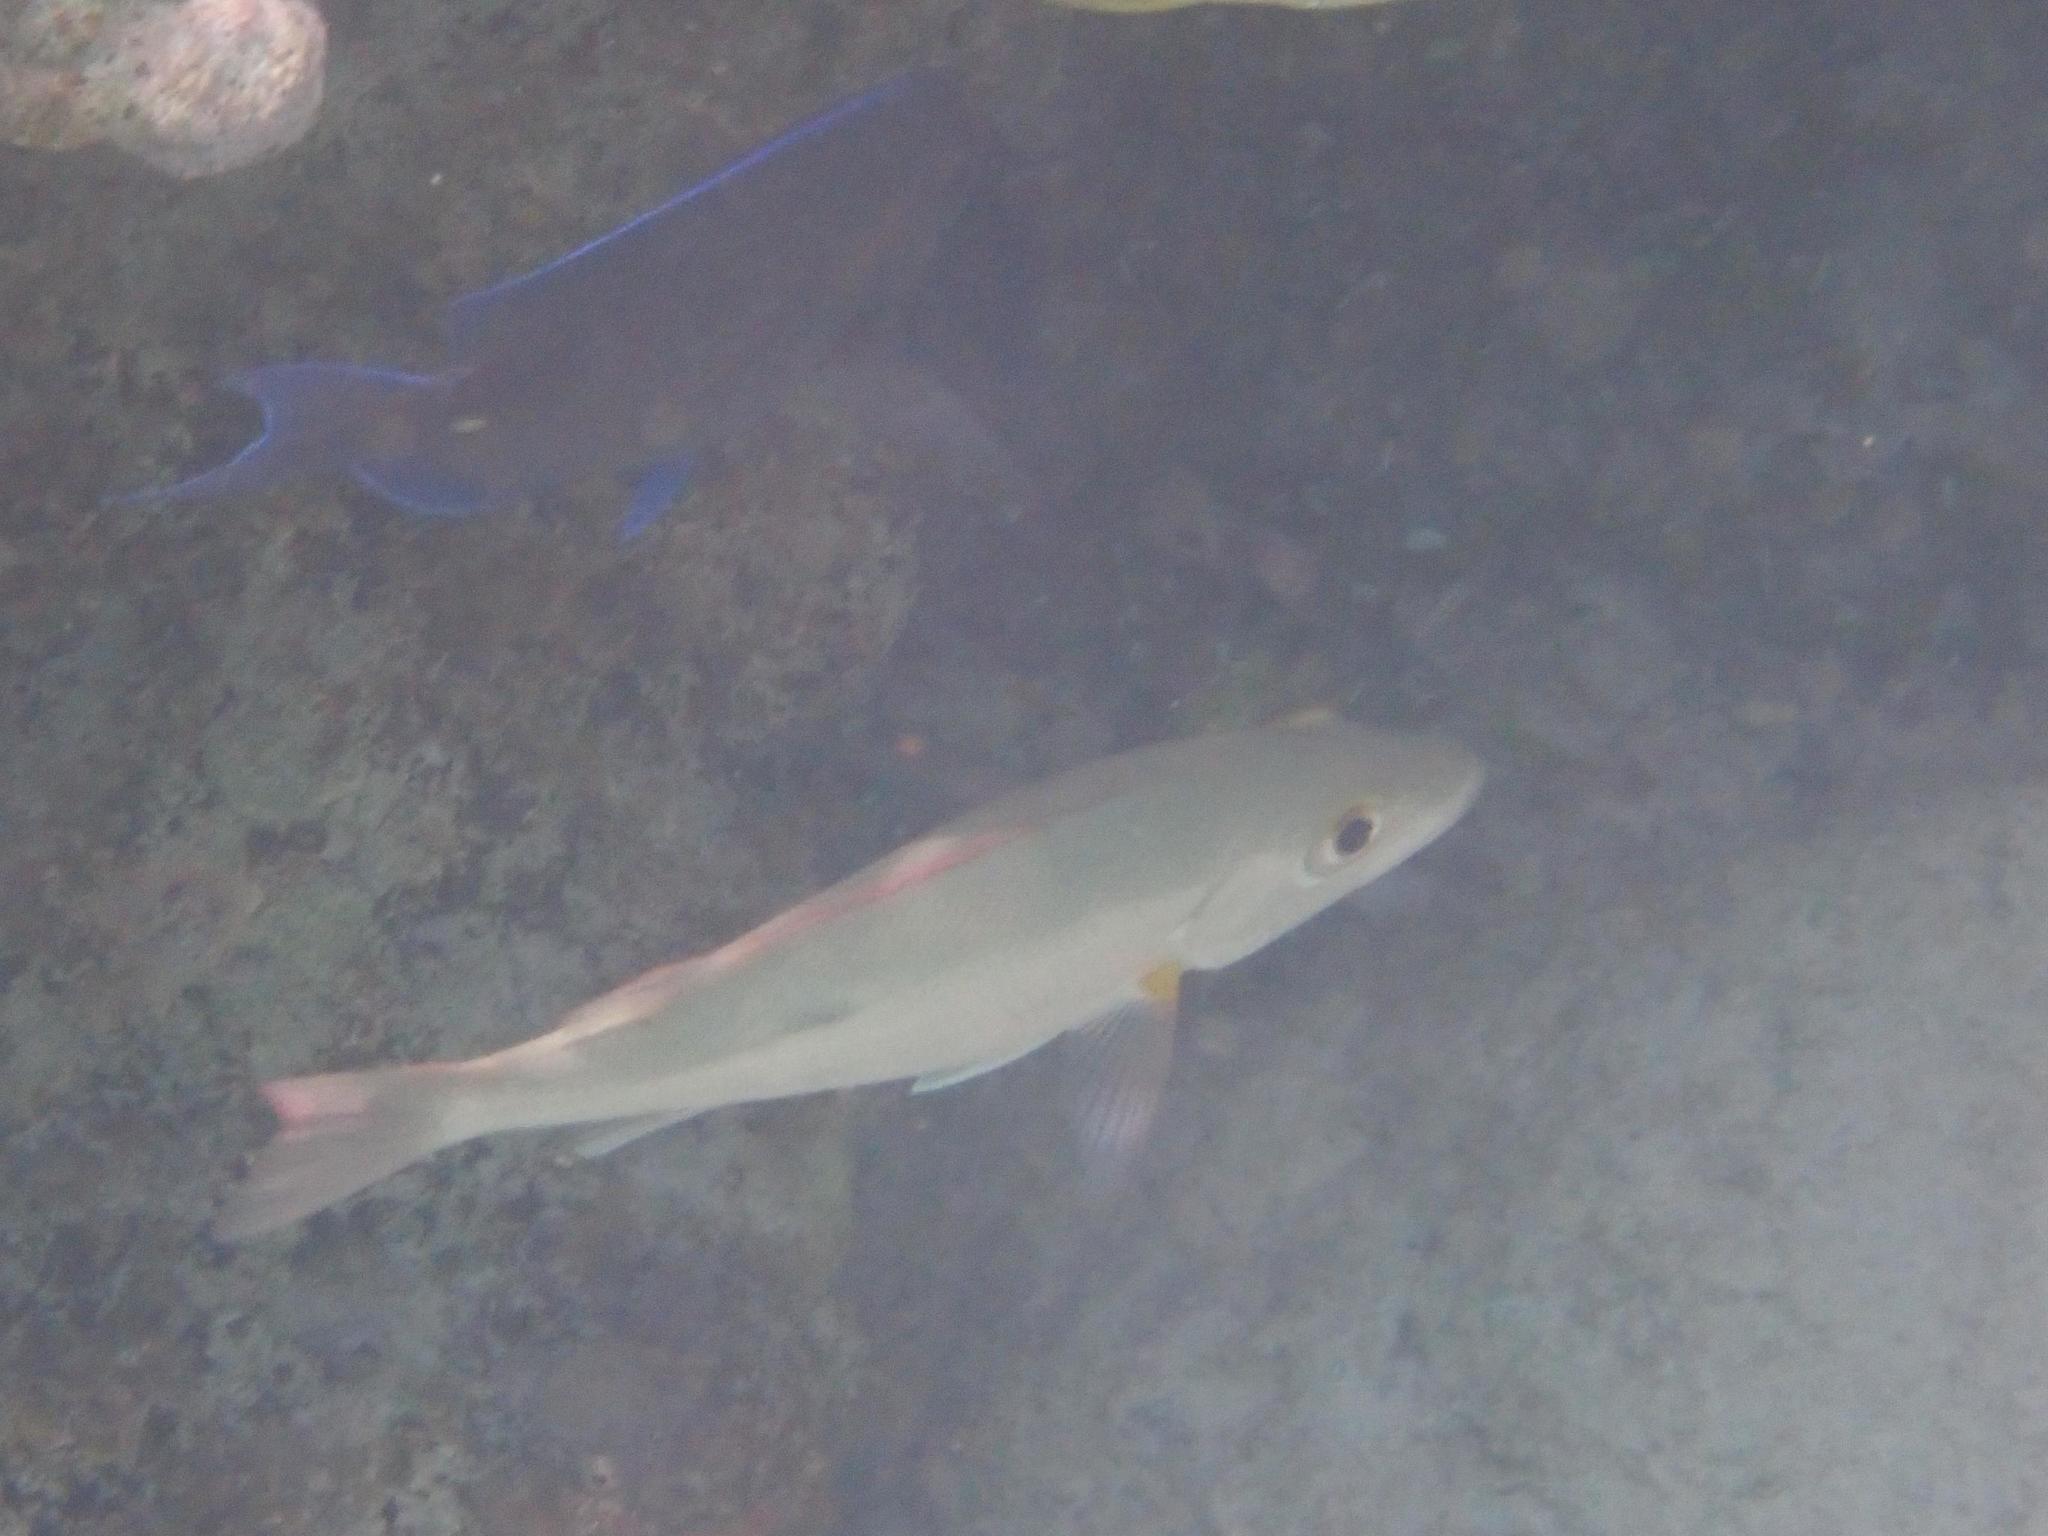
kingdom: Animalia
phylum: Chordata
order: Perciformes
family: Lutjanidae
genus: Lutjanus
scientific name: Lutjanus mahogoni
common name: Spot snapper
